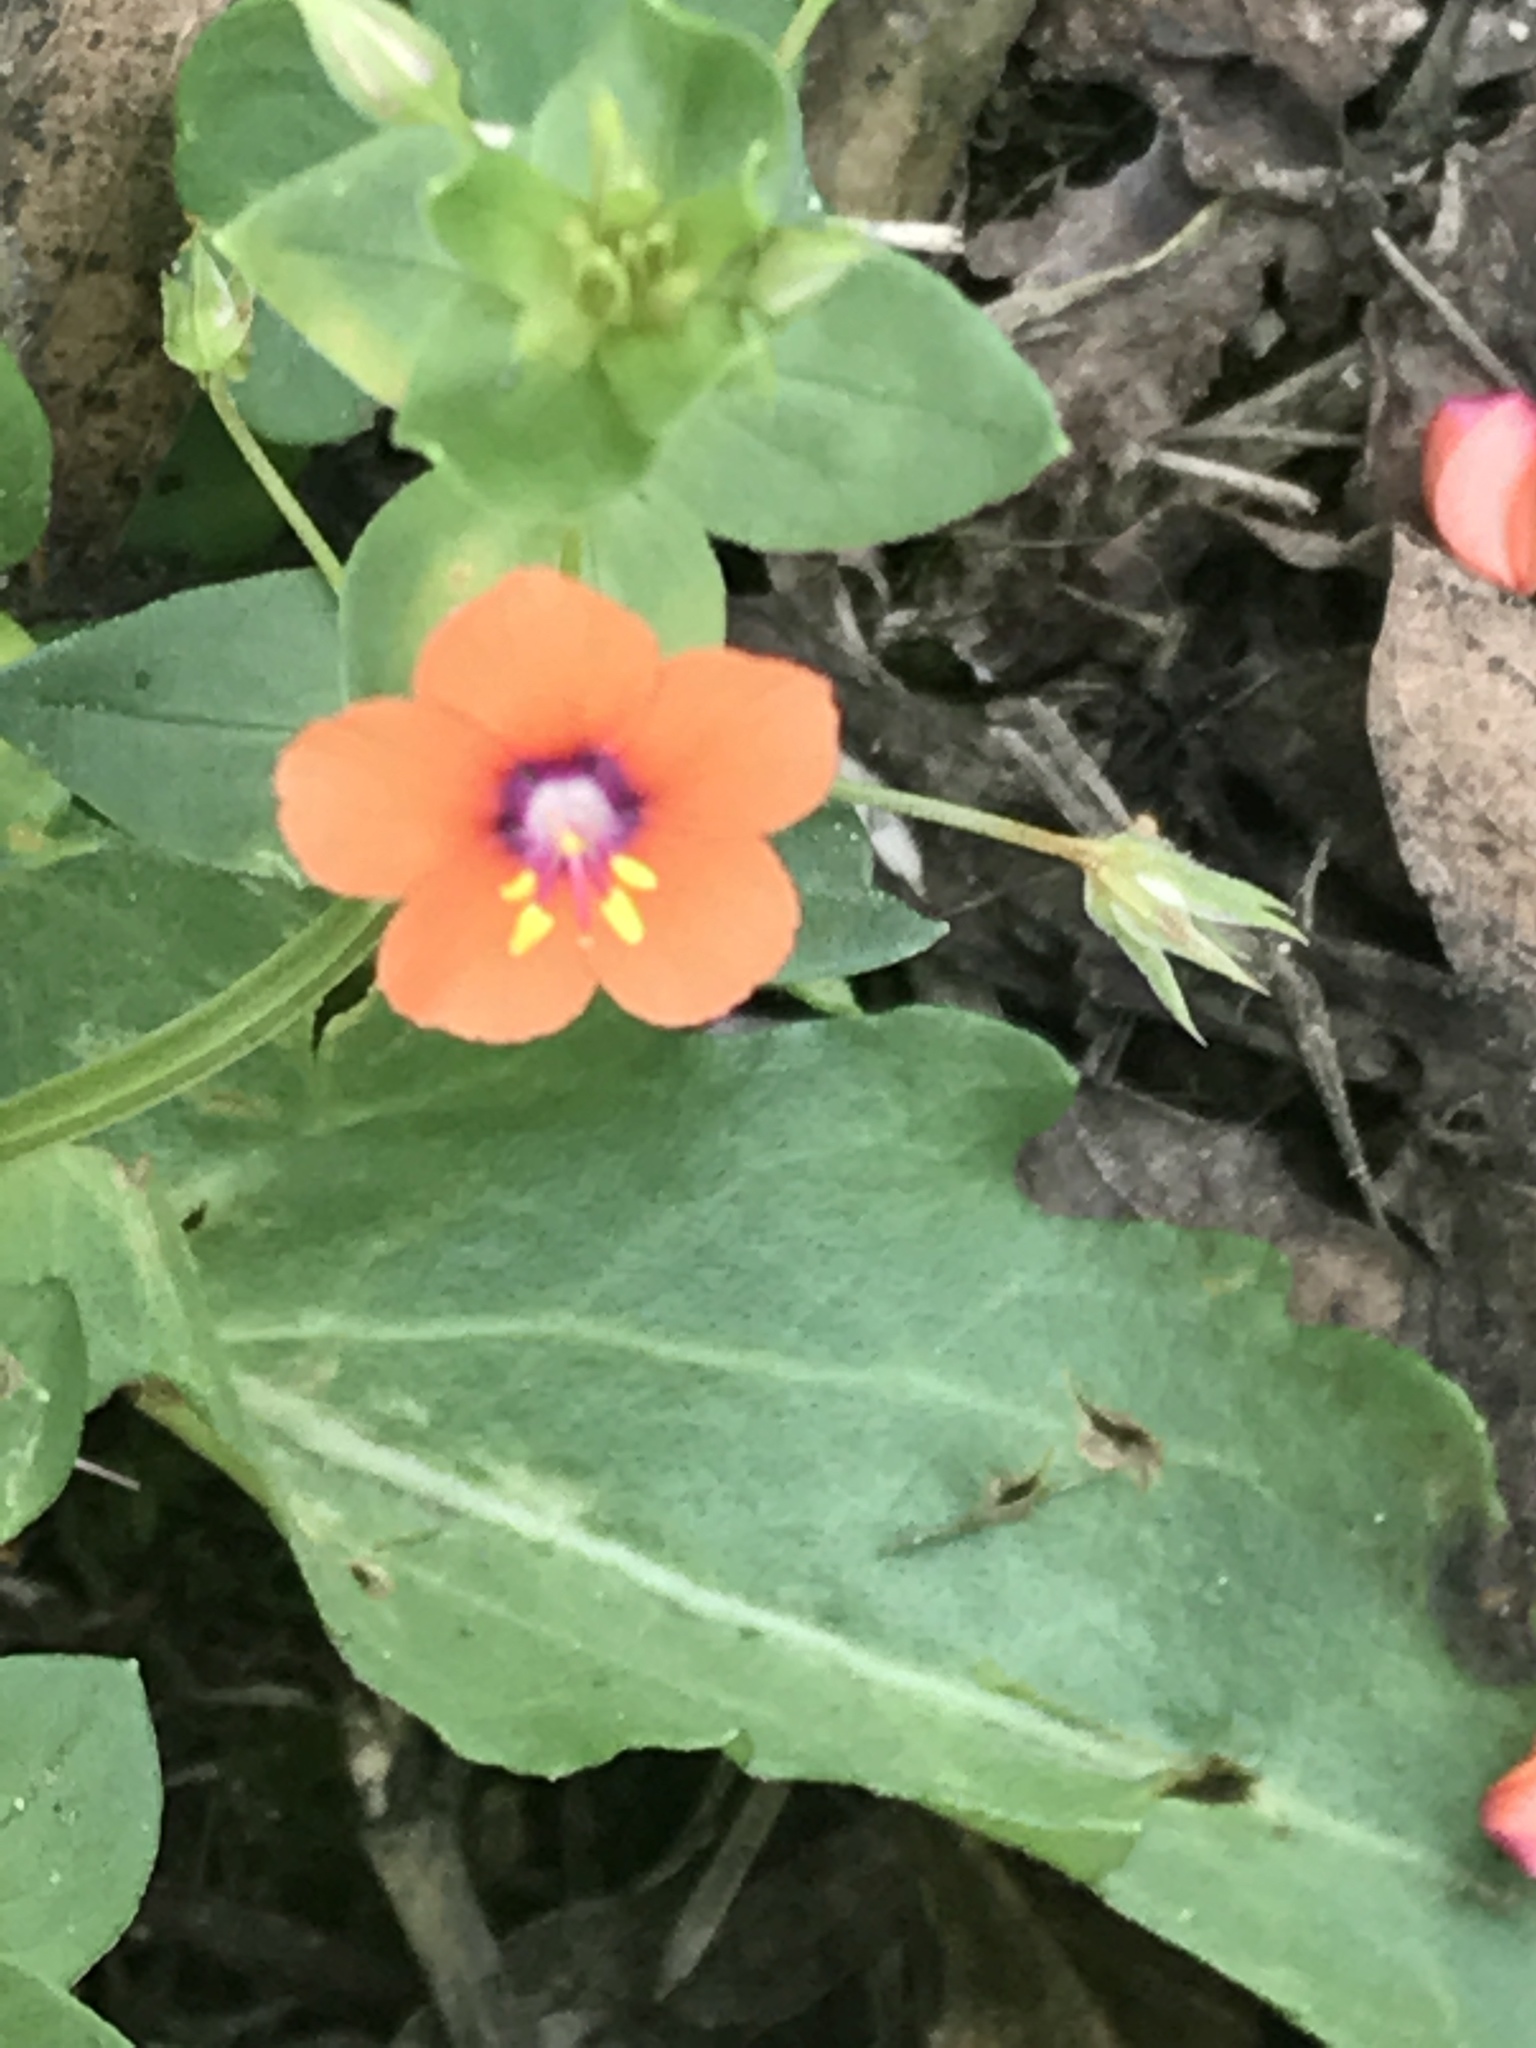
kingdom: Plantae
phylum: Tracheophyta
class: Magnoliopsida
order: Ericales
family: Primulaceae
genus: Lysimachia
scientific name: Lysimachia arvensis
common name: Scarlet pimpernel
